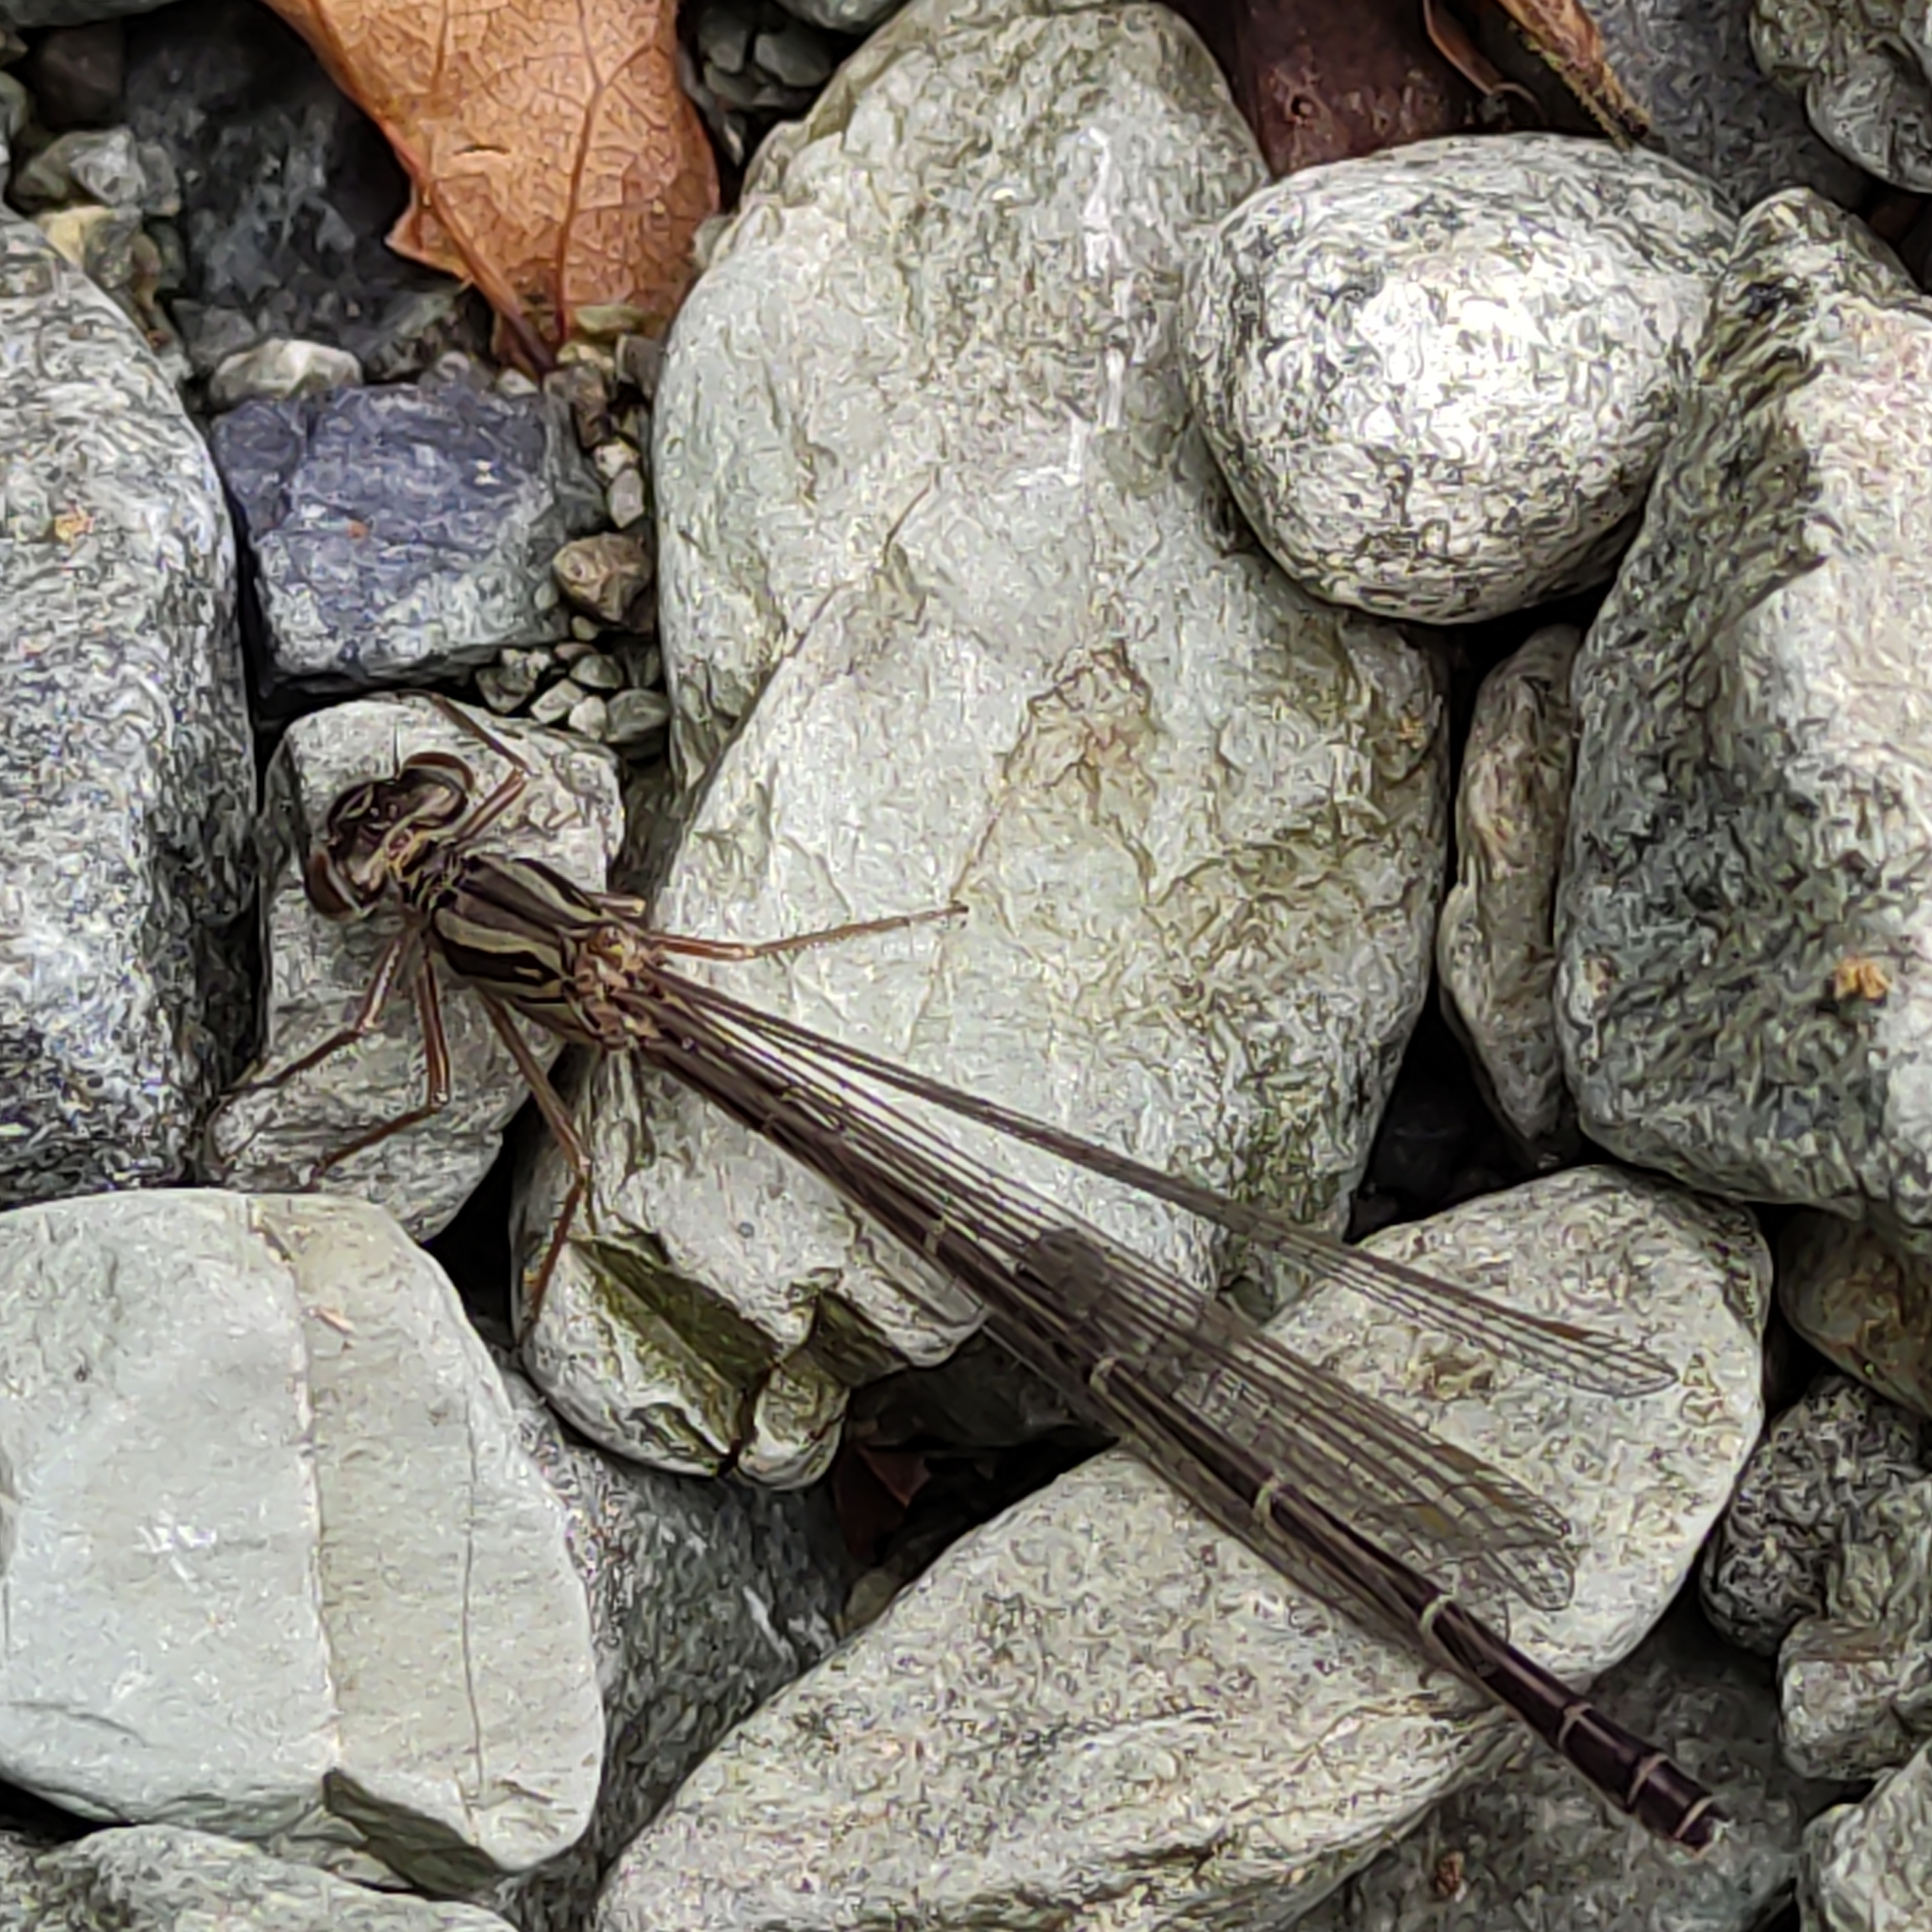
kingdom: Animalia
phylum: Arthropoda
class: Insecta
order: Odonata
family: Coenagrionidae
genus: Xanthocnemis
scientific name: Xanthocnemis zealandica
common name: Common redcoat damselfly
